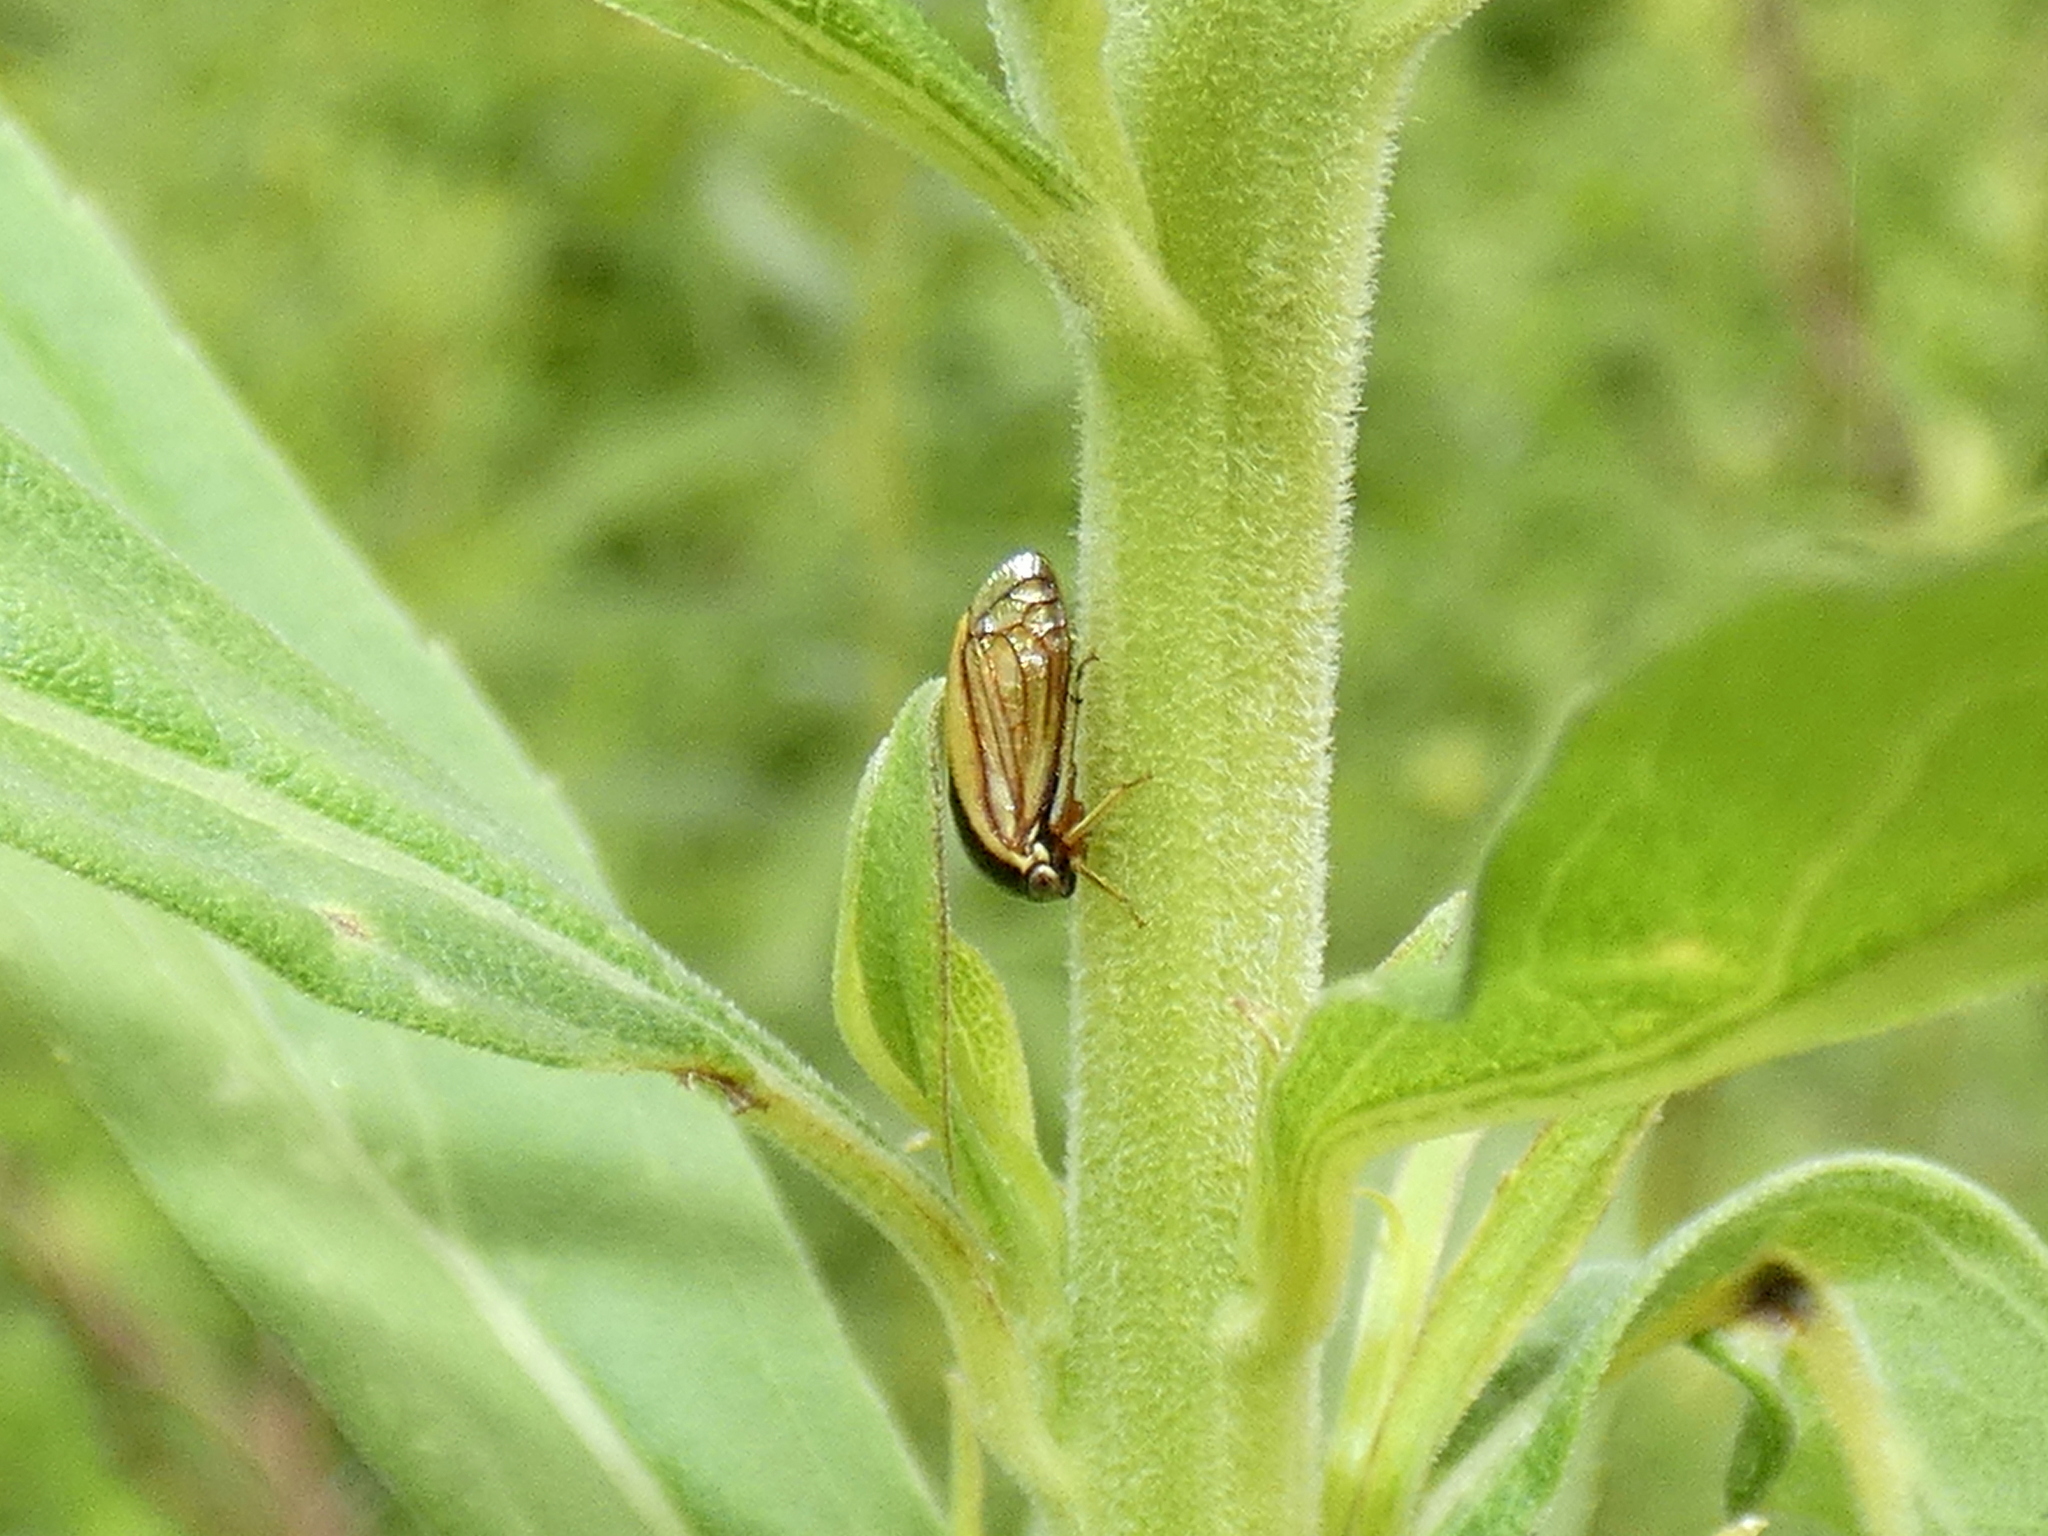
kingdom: Animalia
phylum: Arthropoda
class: Insecta
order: Hemiptera
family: Membracidae
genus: Acutalis
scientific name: Acutalis tartarea
